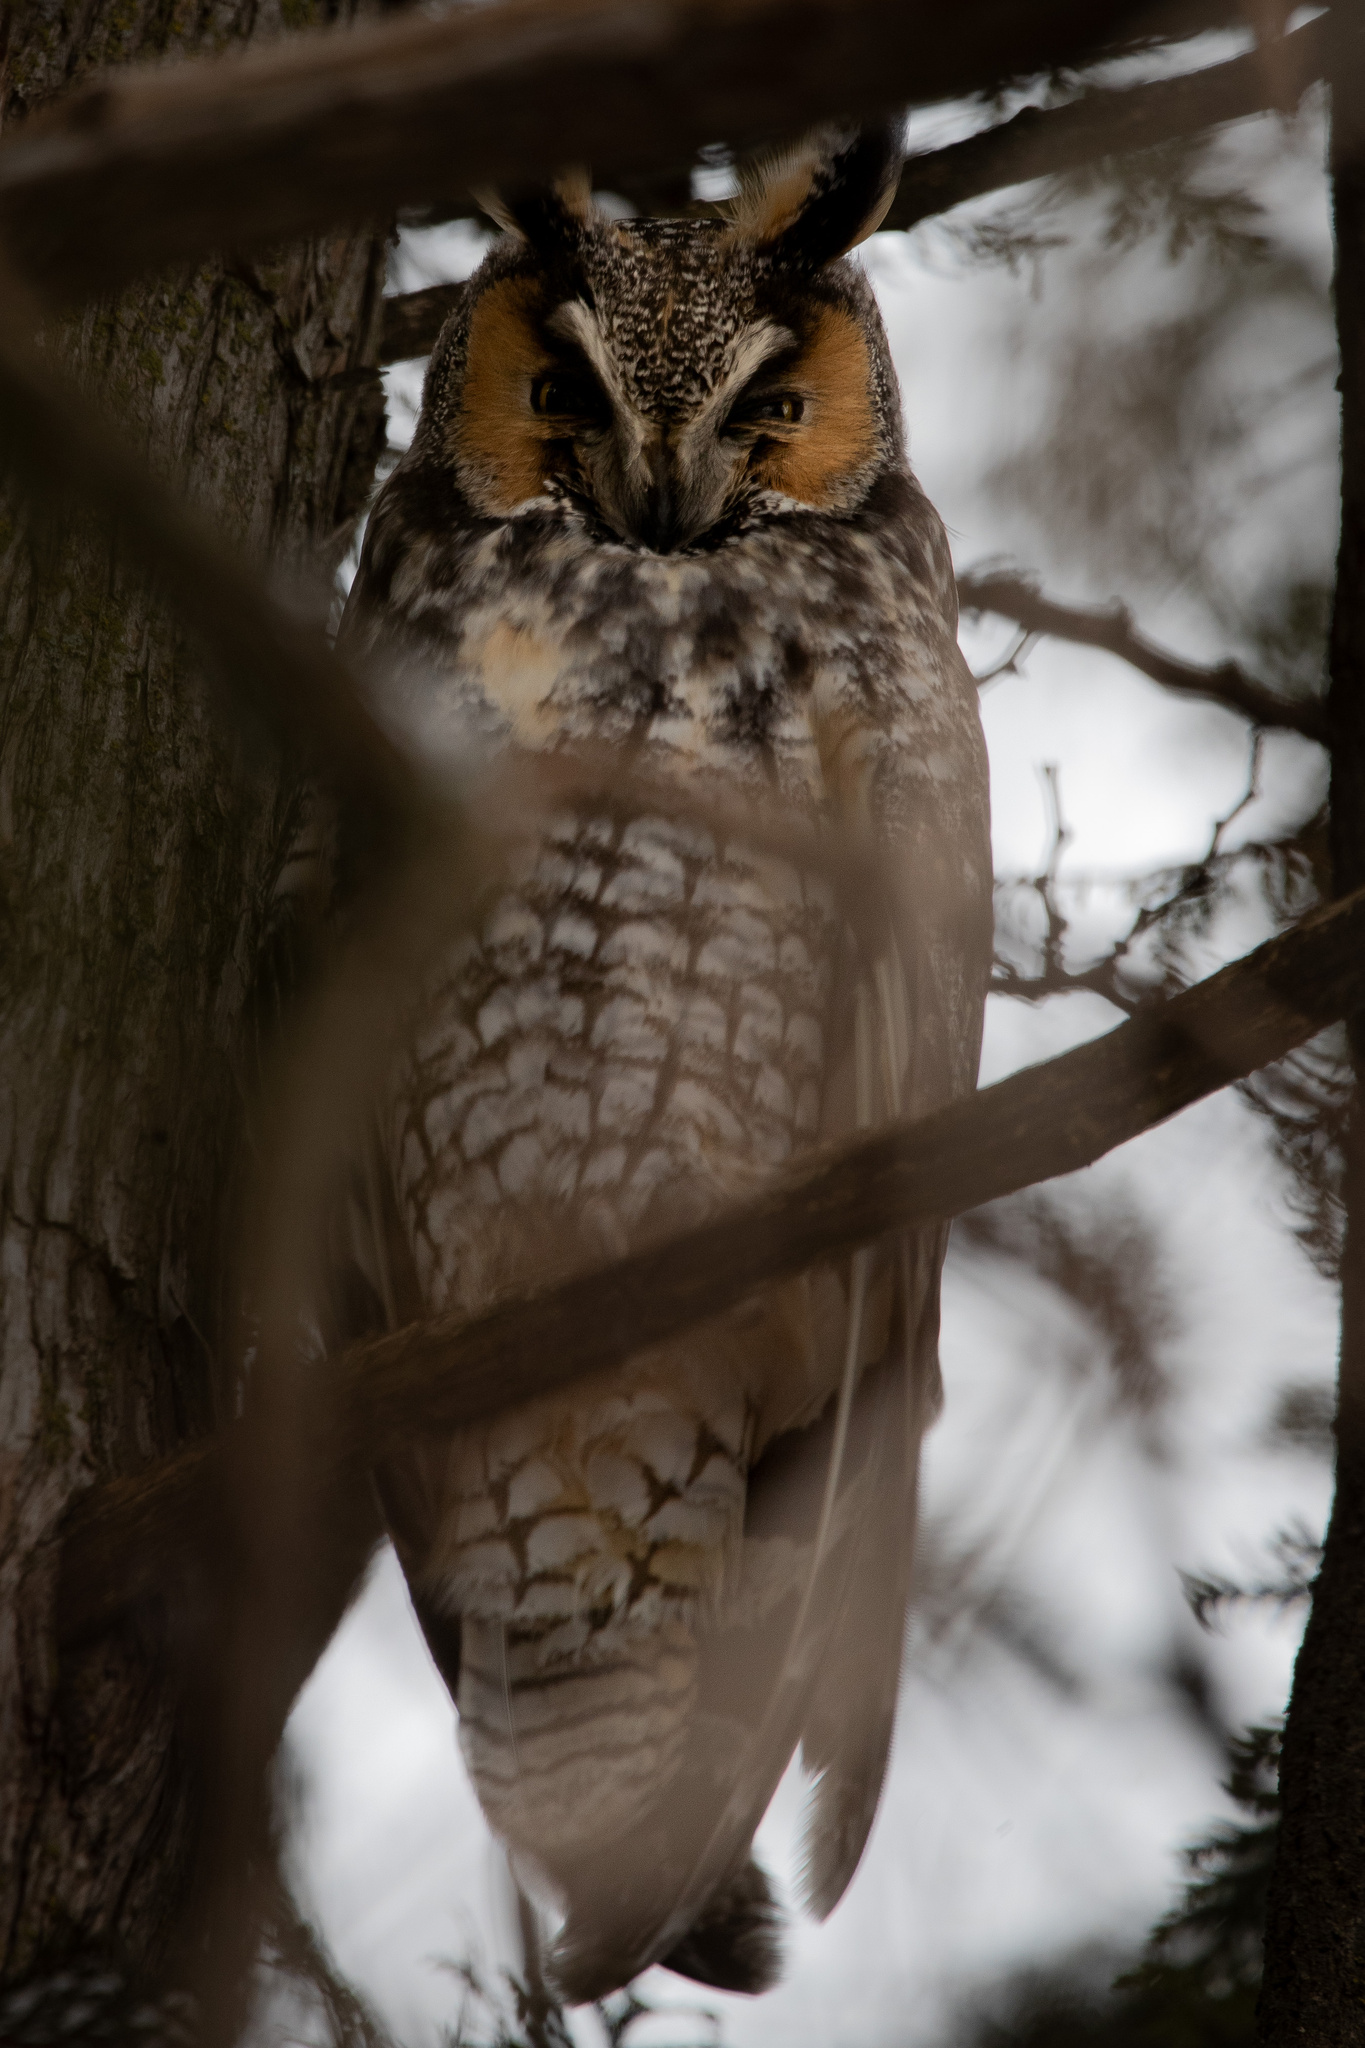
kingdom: Animalia
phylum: Chordata
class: Aves
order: Strigiformes
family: Strigidae
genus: Asio
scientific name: Asio otus
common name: Long-eared owl
